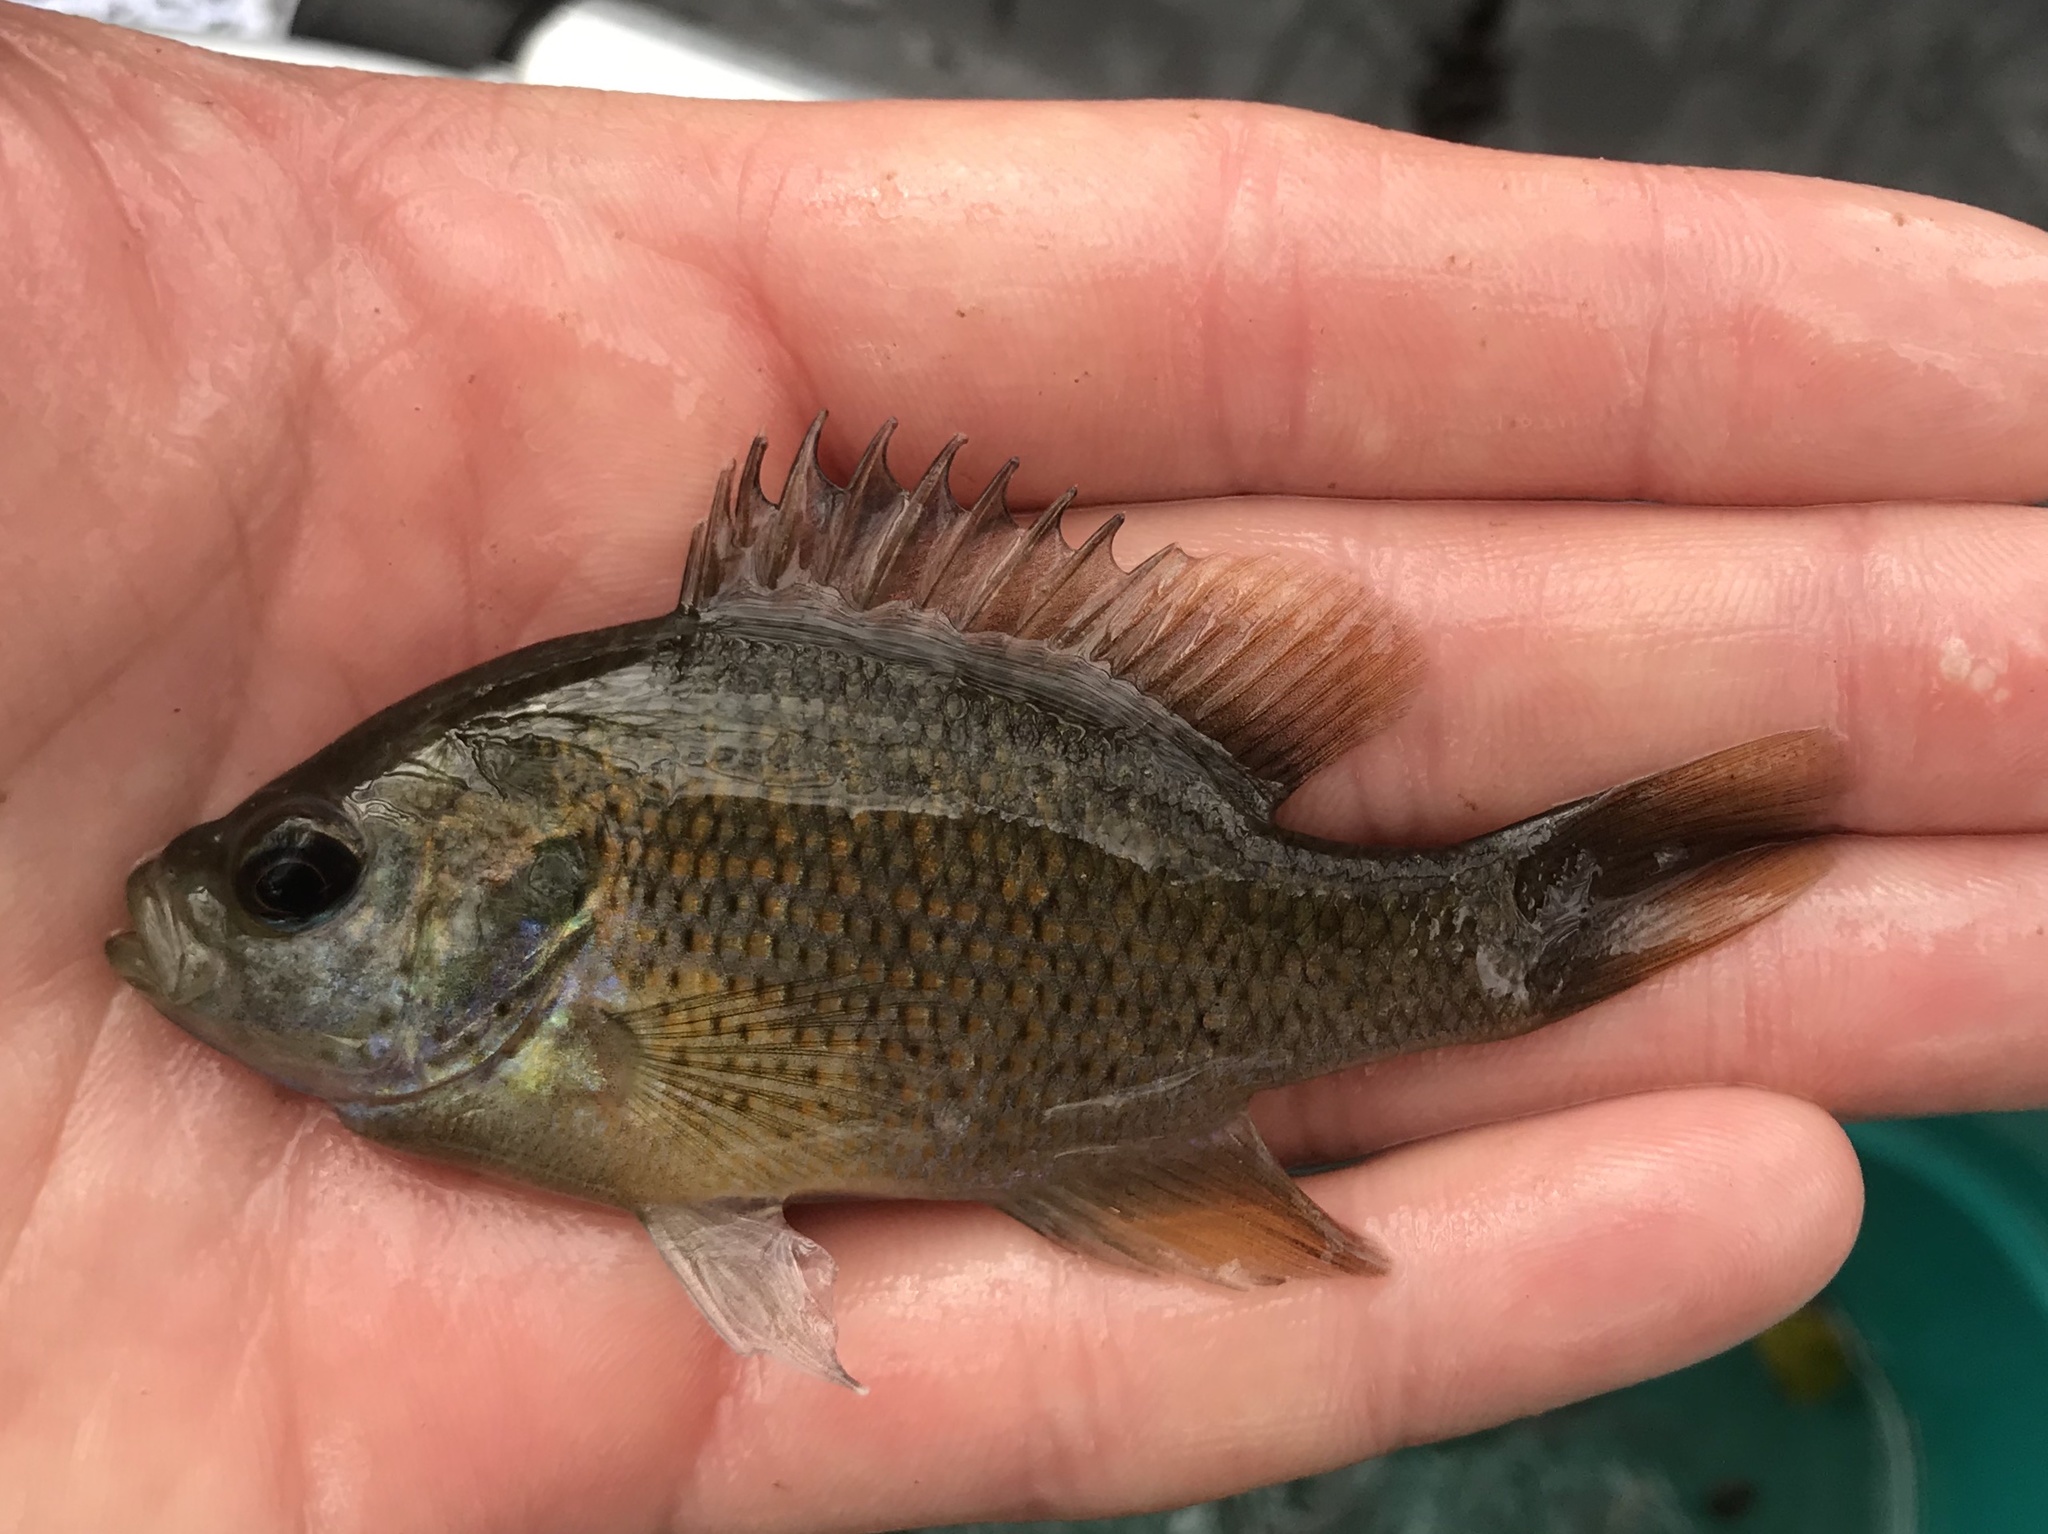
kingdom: Animalia
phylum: Chordata
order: Perciformes
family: Centrarchidae
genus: Lepomis
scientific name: Lepomis miniatus
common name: Redspotted sunfish
